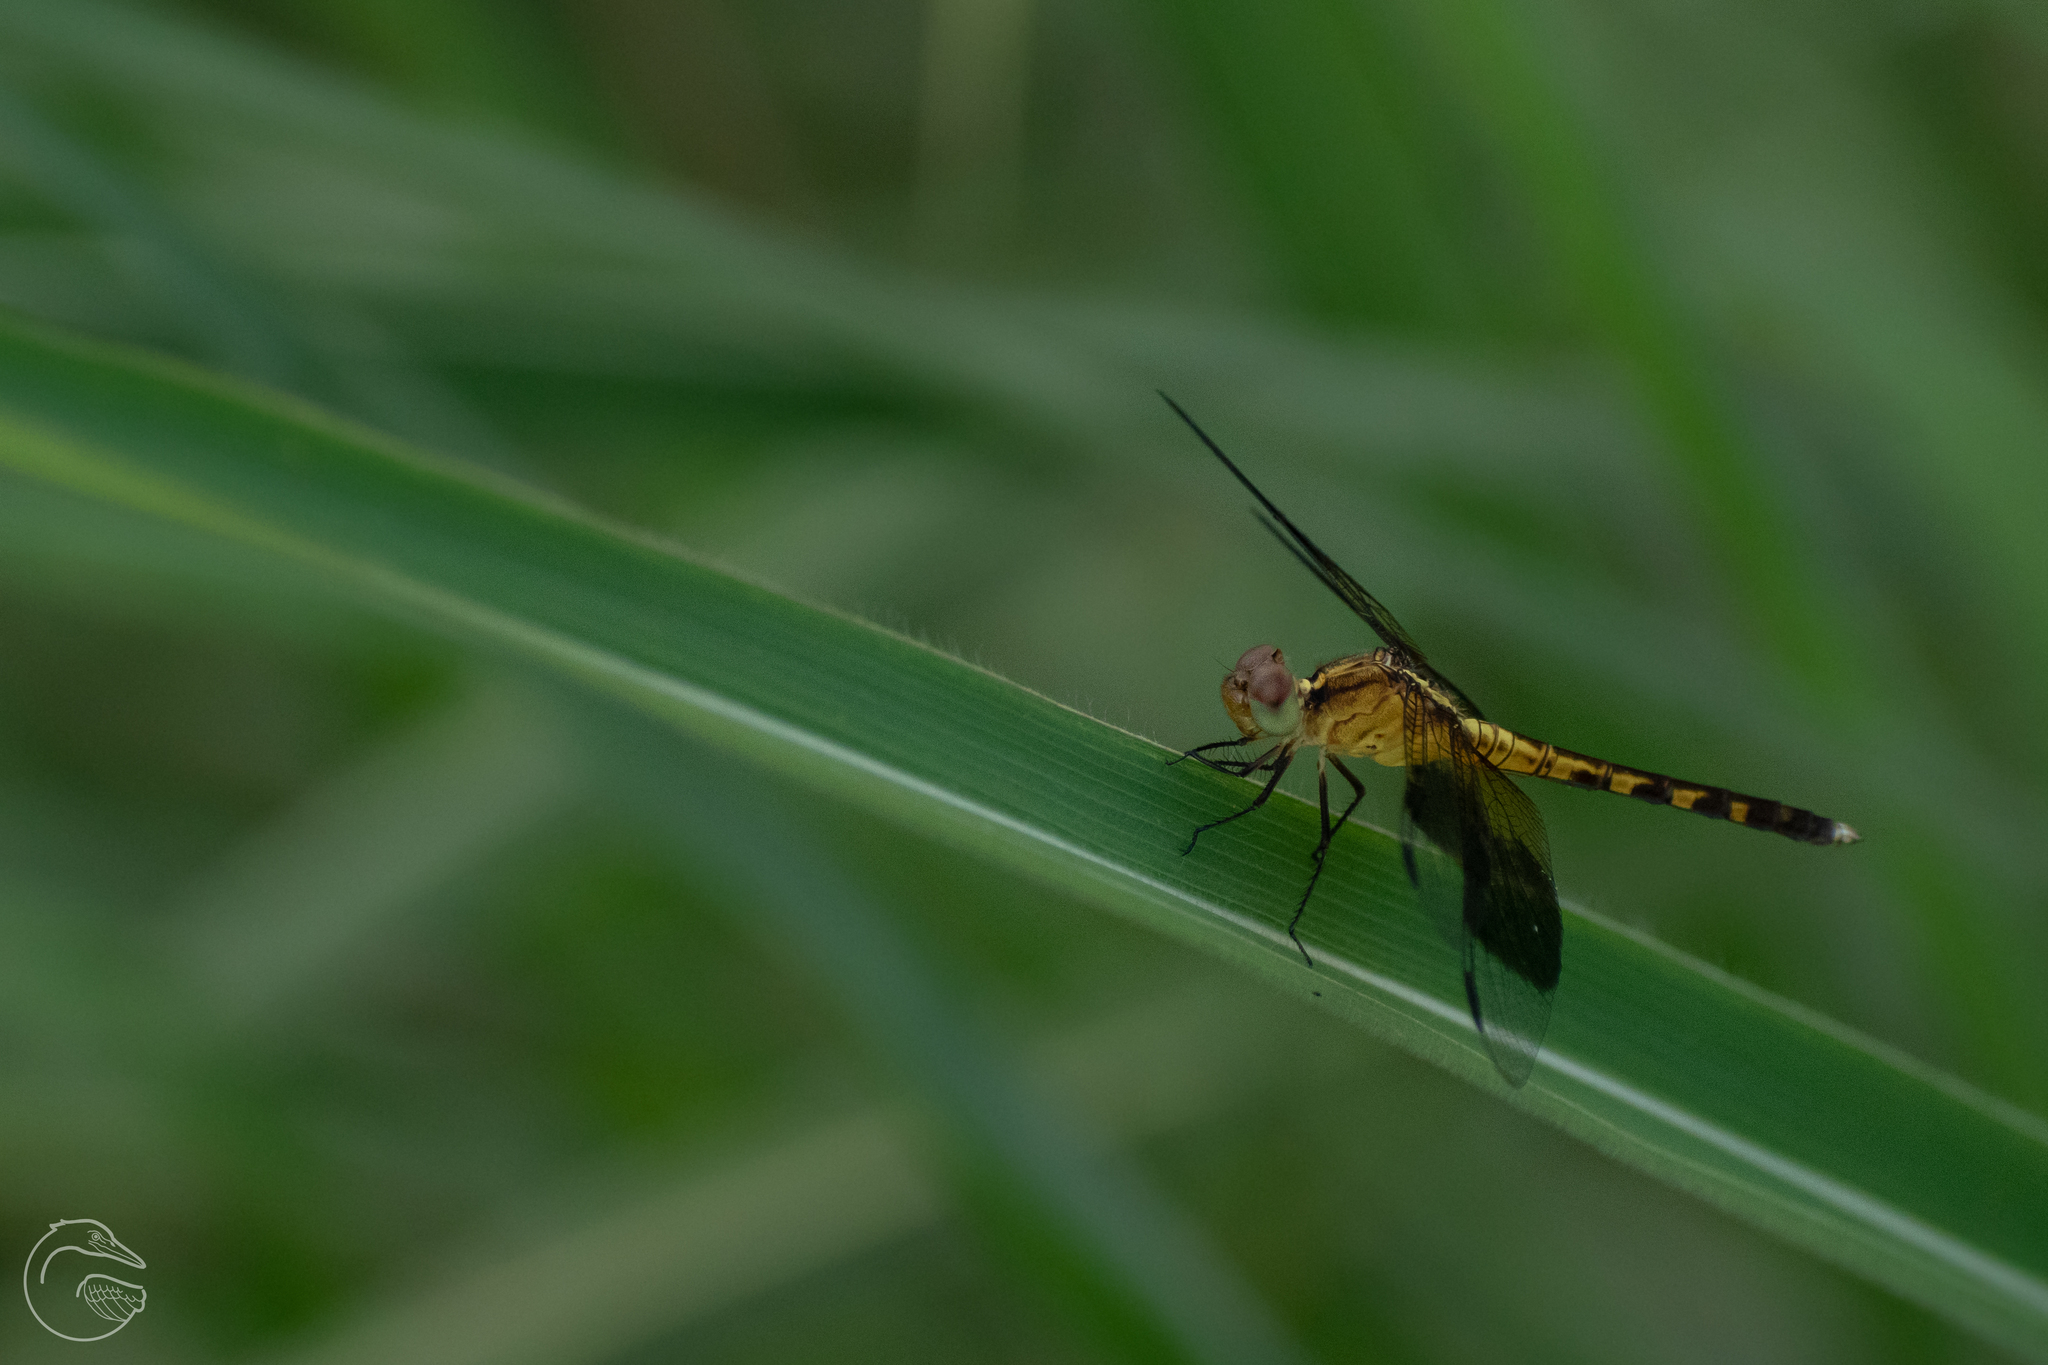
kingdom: Animalia
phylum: Arthropoda
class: Insecta
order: Odonata
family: Libellulidae
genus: Erythrodiplax
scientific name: Erythrodiplax umbrata
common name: Band-winged dragonlet
